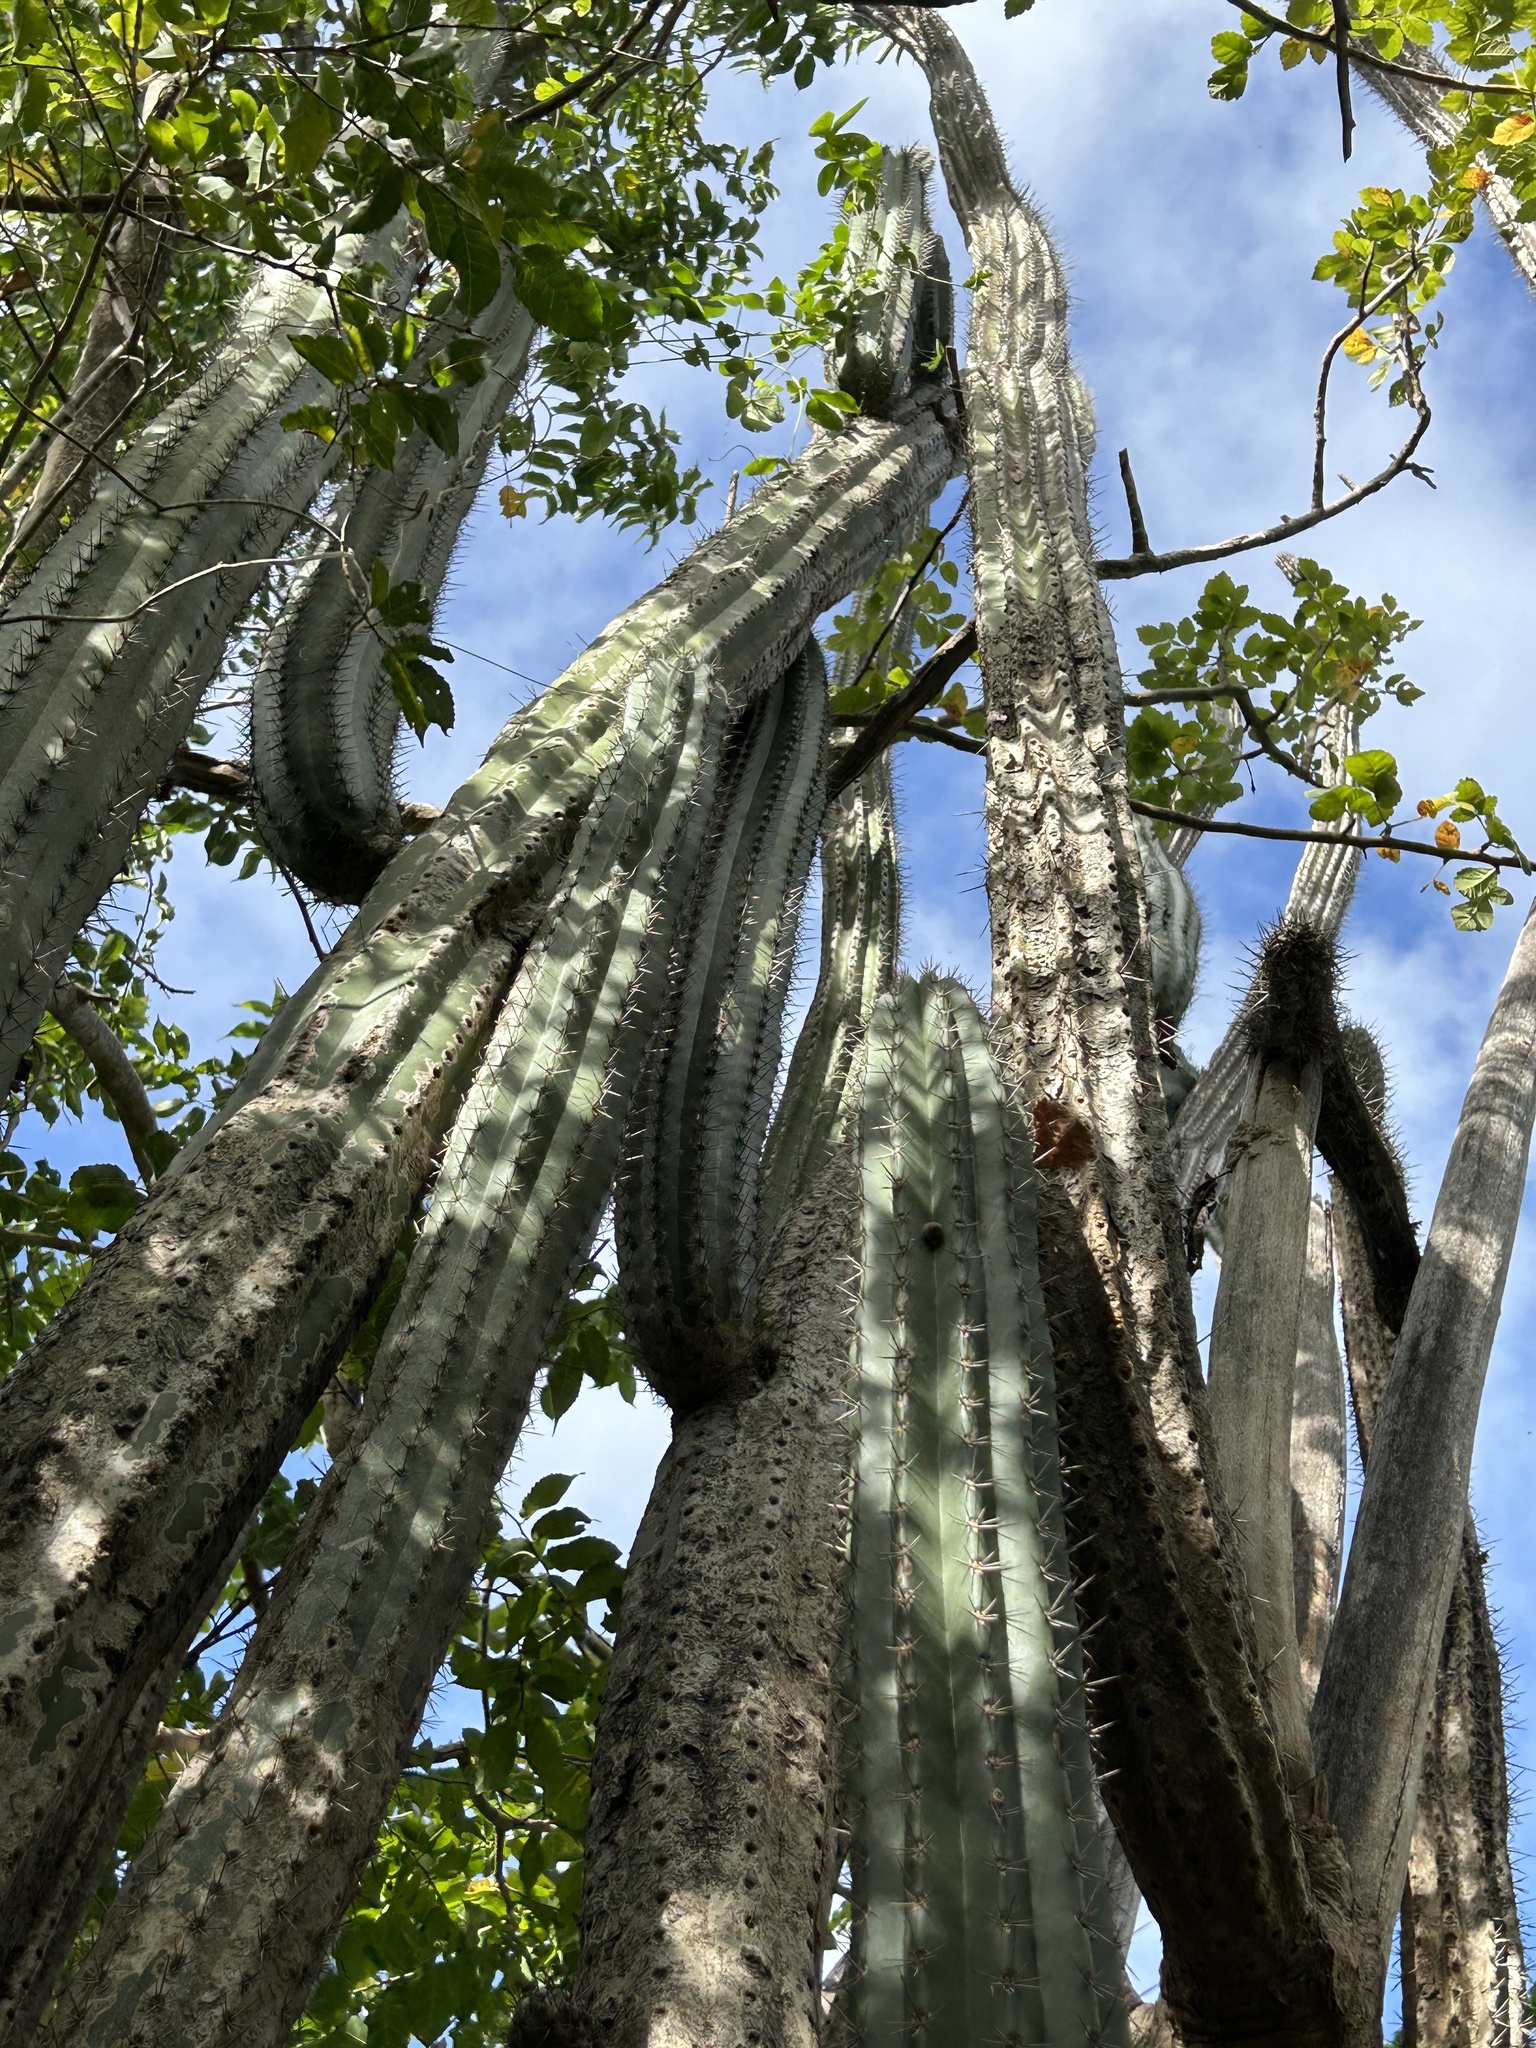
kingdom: Plantae
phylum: Tracheophyta
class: Magnoliopsida
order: Caryophyllales
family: Cactaceae
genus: Cereus
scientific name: Cereus repandus
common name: Sweetpotato cactus
